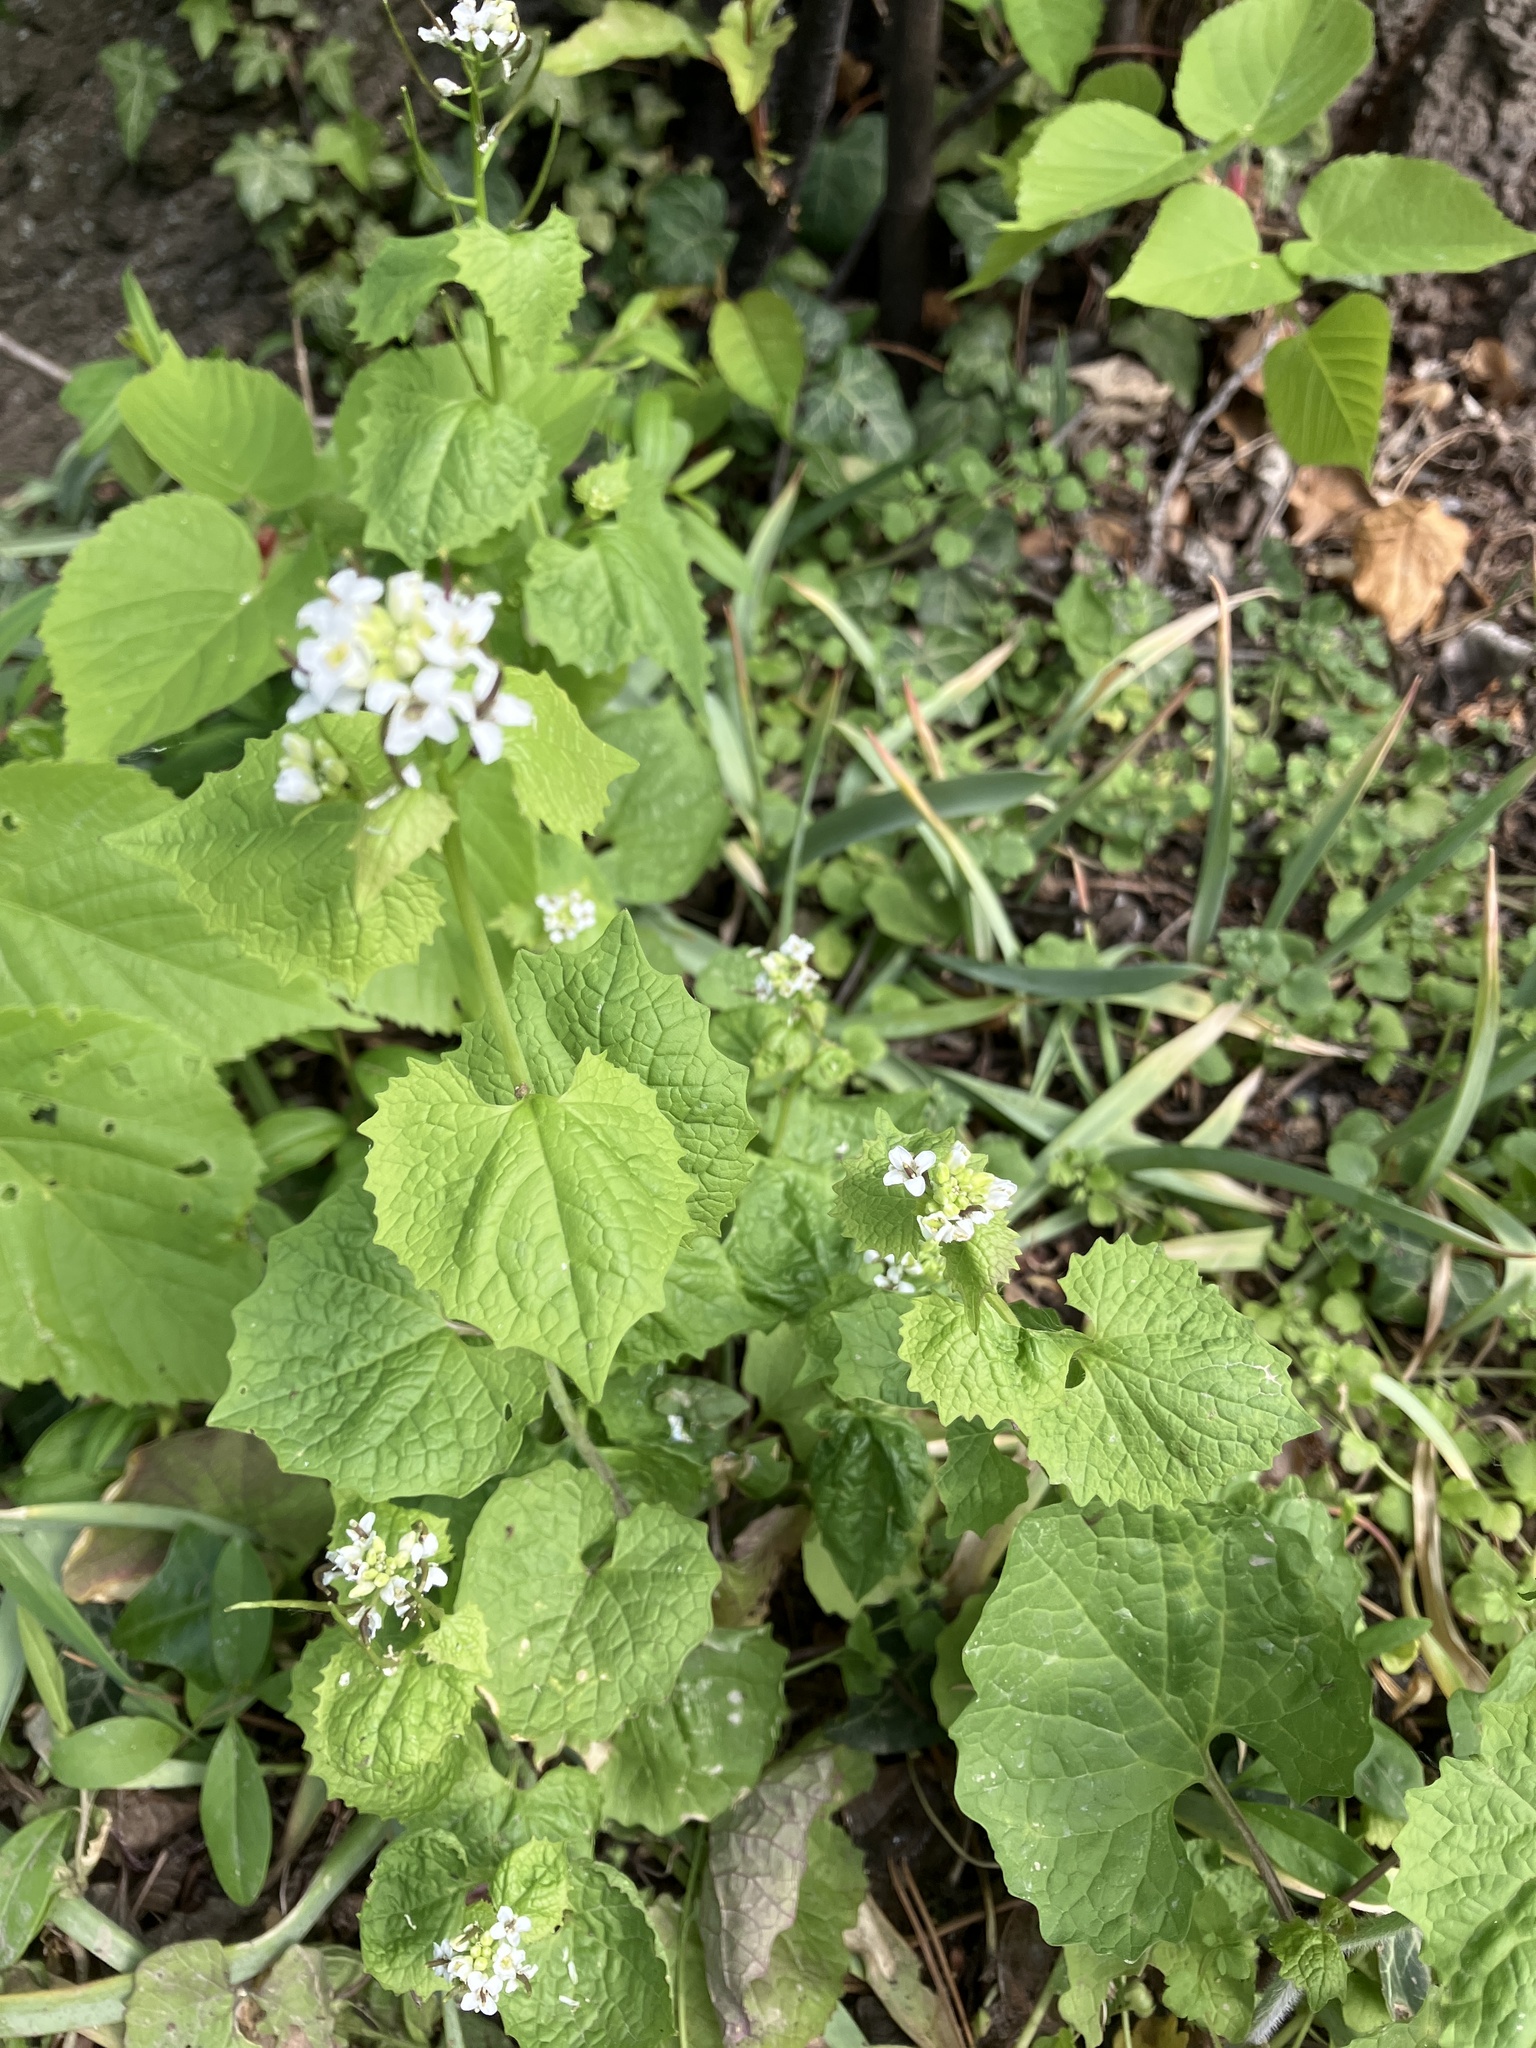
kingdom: Plantae
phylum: Tracheophyta
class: Magnoliopsida
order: Brassicales
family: Brassicaceae
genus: Alliaria
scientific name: Alliaria petiolata
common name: Garlic mustard
